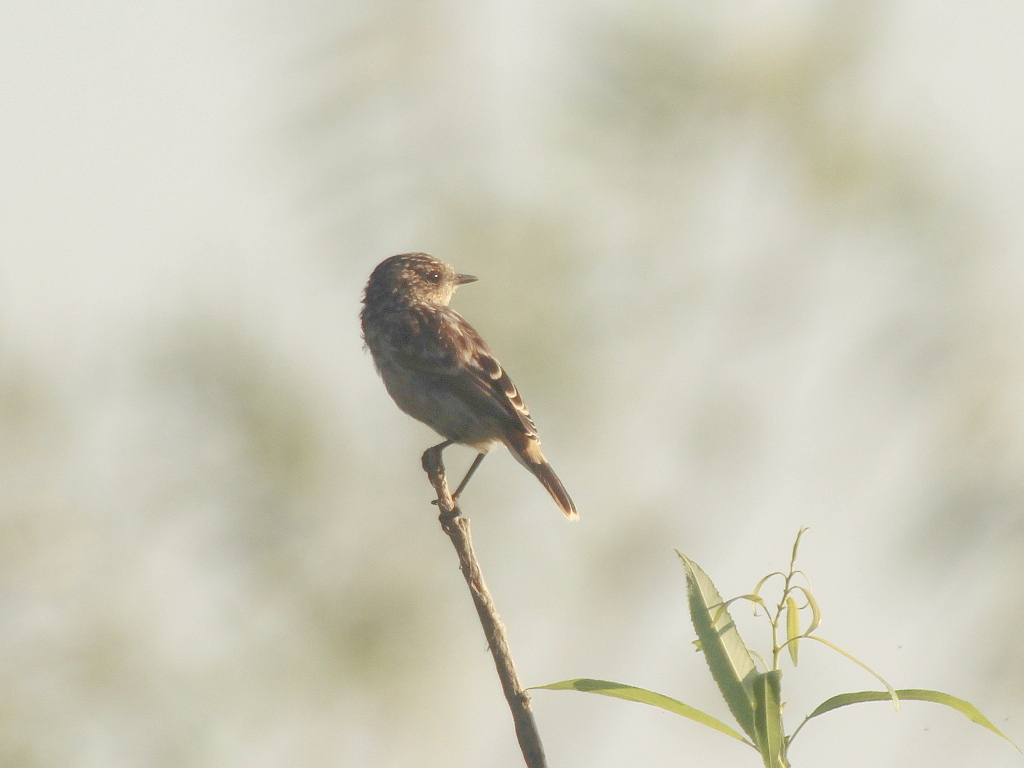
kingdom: Animalia
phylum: Chordata
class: Aves
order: Passeriformes
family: Muscicapidae
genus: Saxicola
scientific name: Saxicola maurus
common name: Siberian stonechat
